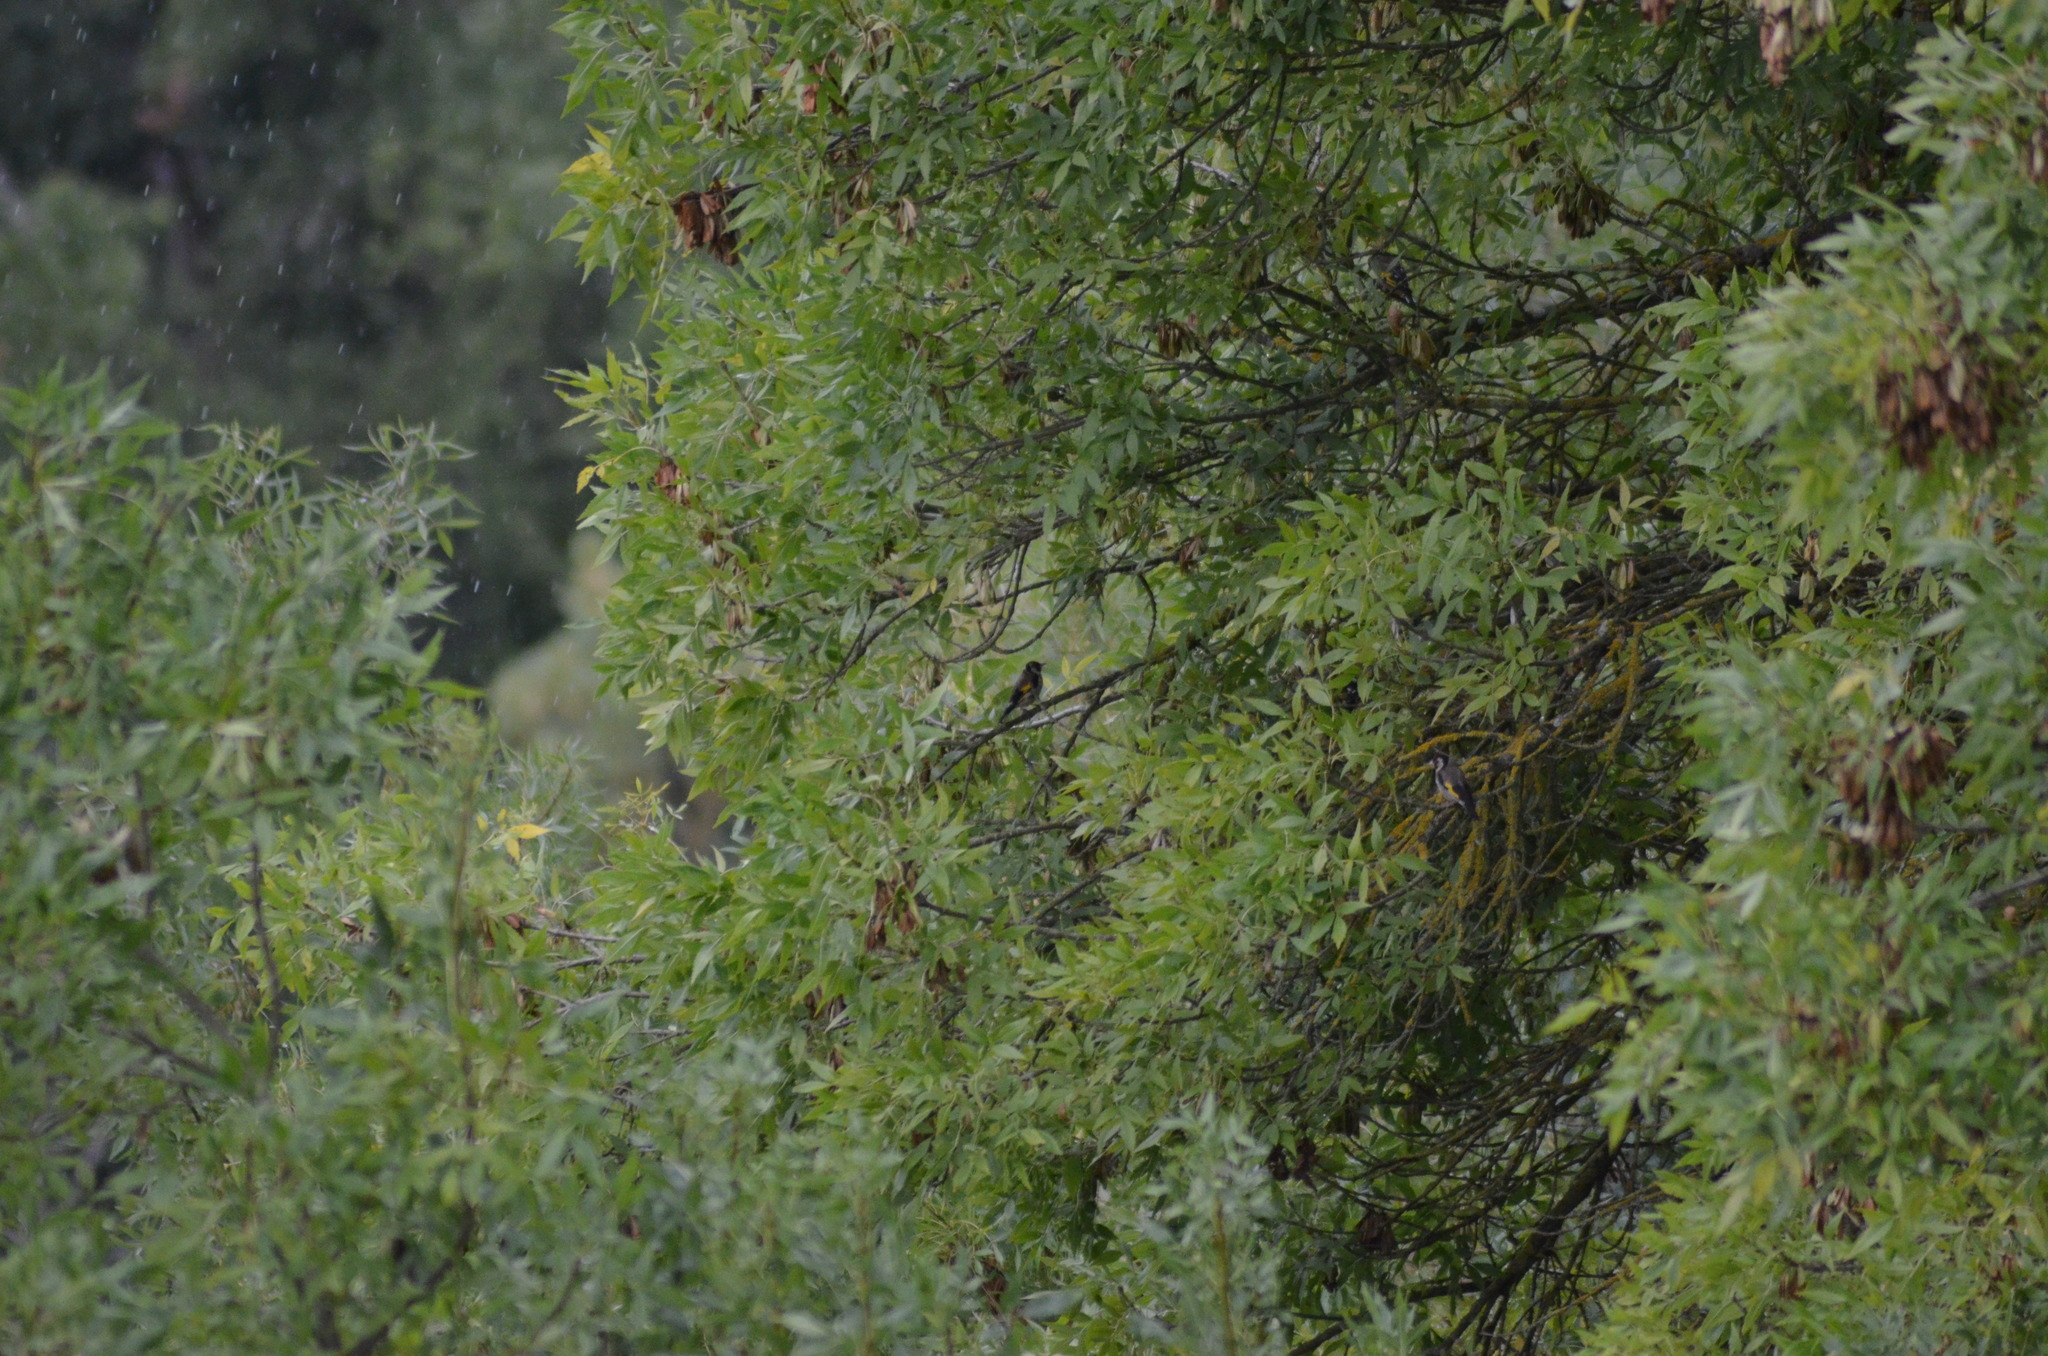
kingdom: Animalia
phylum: Chordata
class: Aves
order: Passeriformes
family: Fringillidae
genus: Carduelis
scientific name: Carduelis carduelis
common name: European goldfinch
